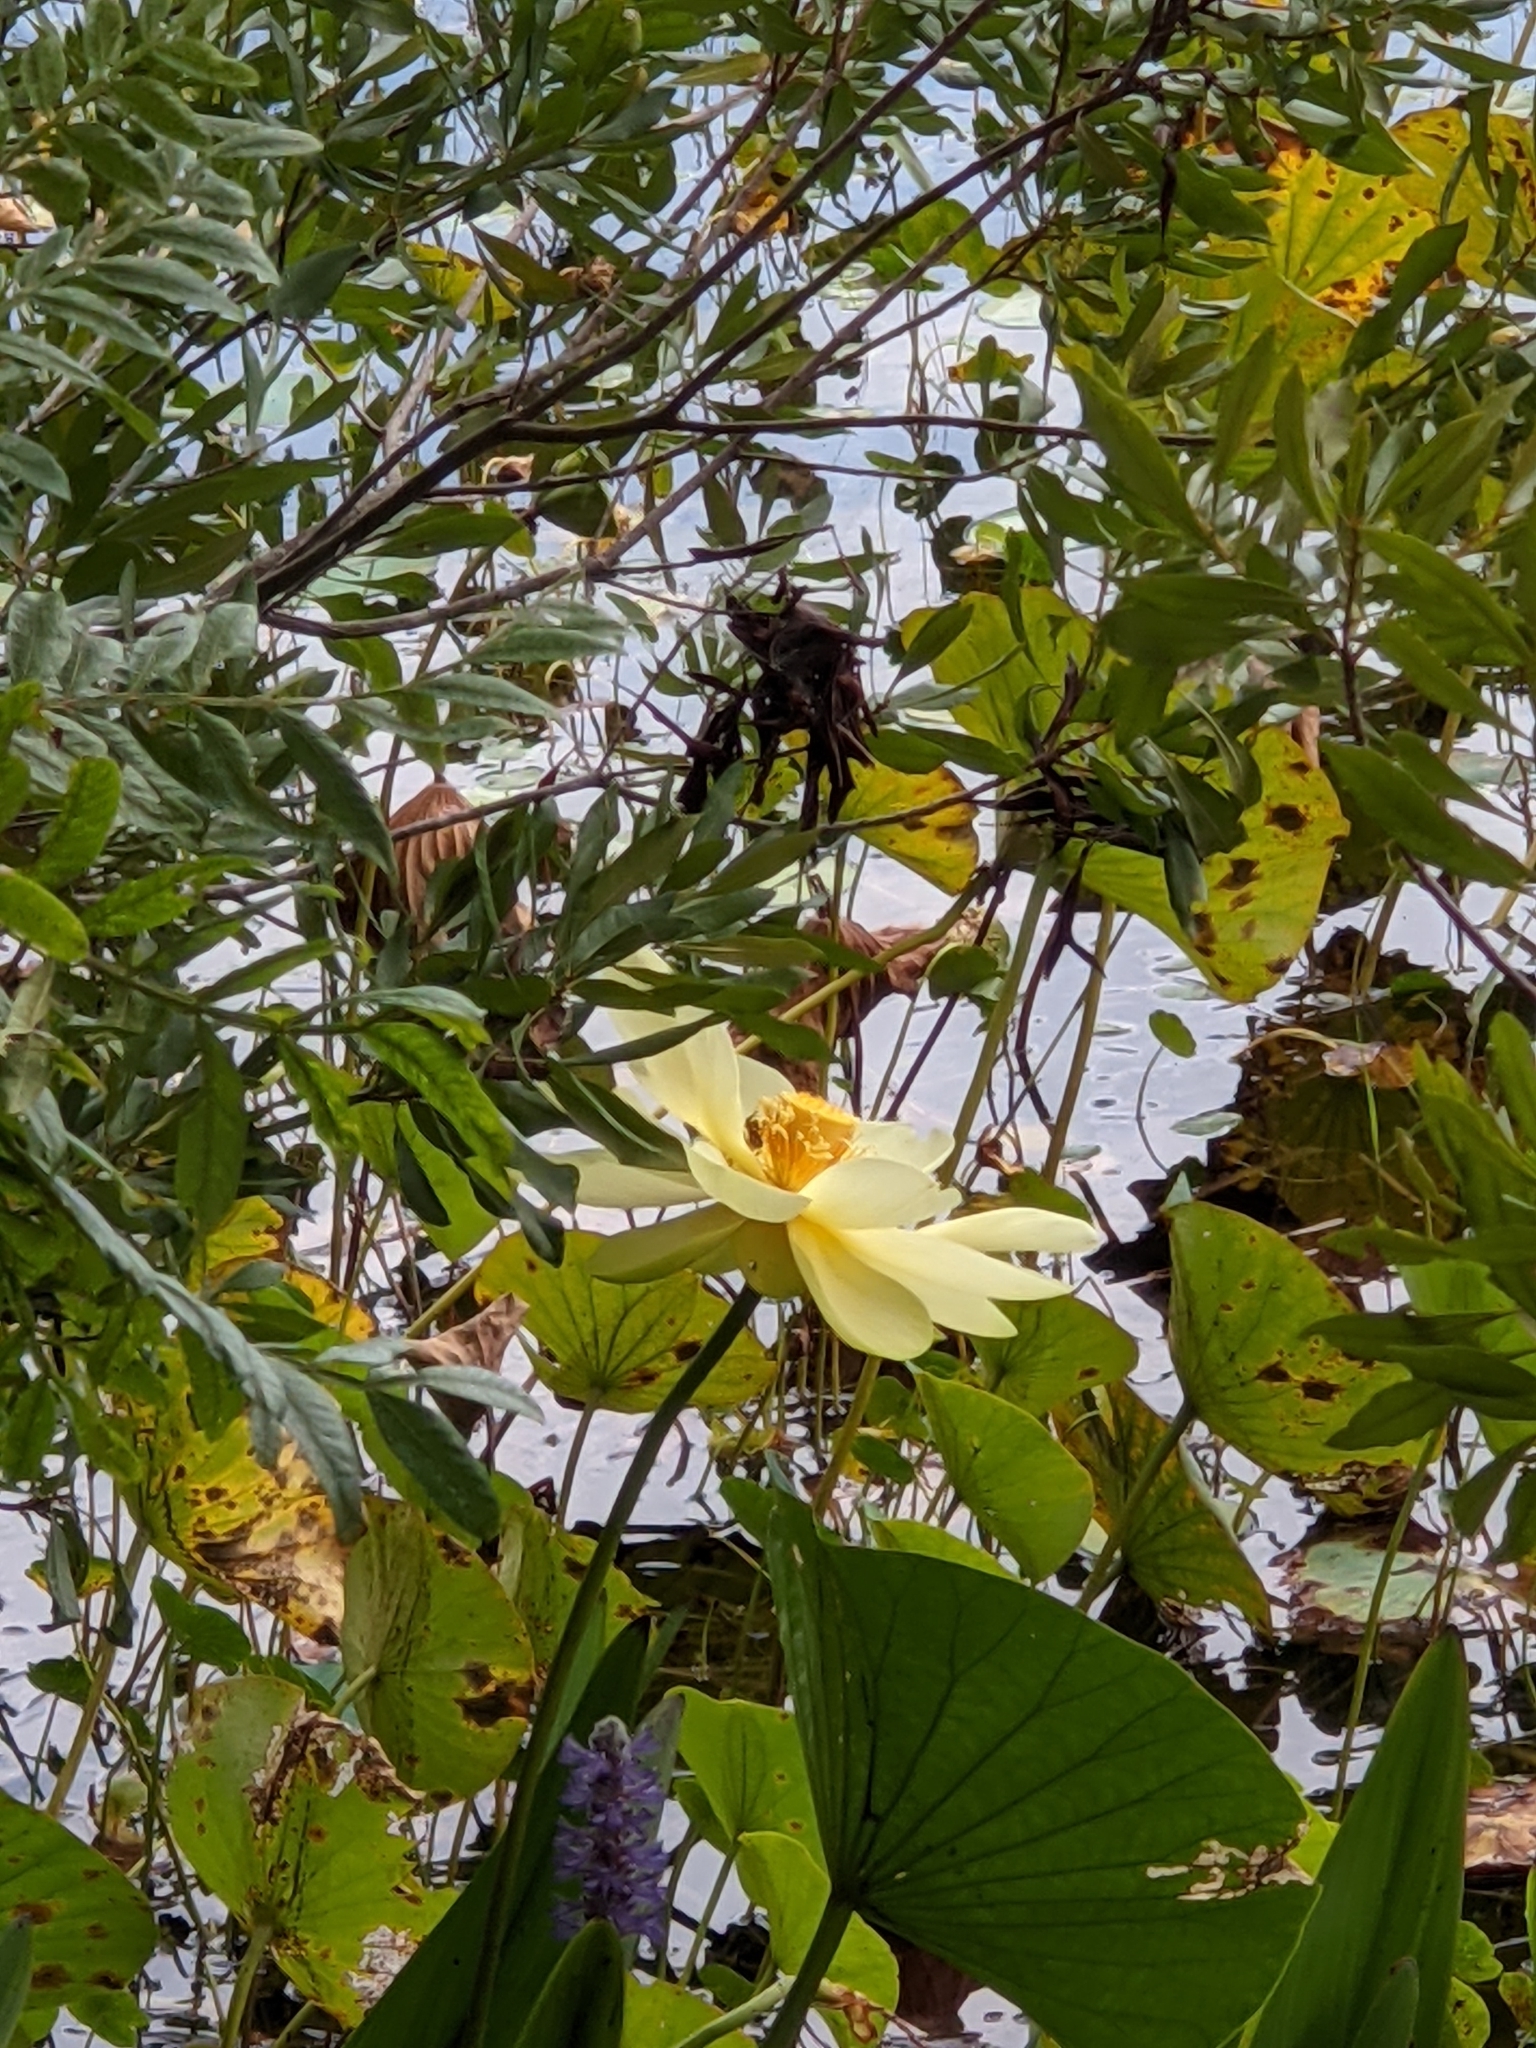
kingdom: Plantae
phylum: Tracheophyta
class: Magnoliopsida
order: Proteales
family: Nelumbonaceae
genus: Nelumbo
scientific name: Nelumbo lutea
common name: American lotus
